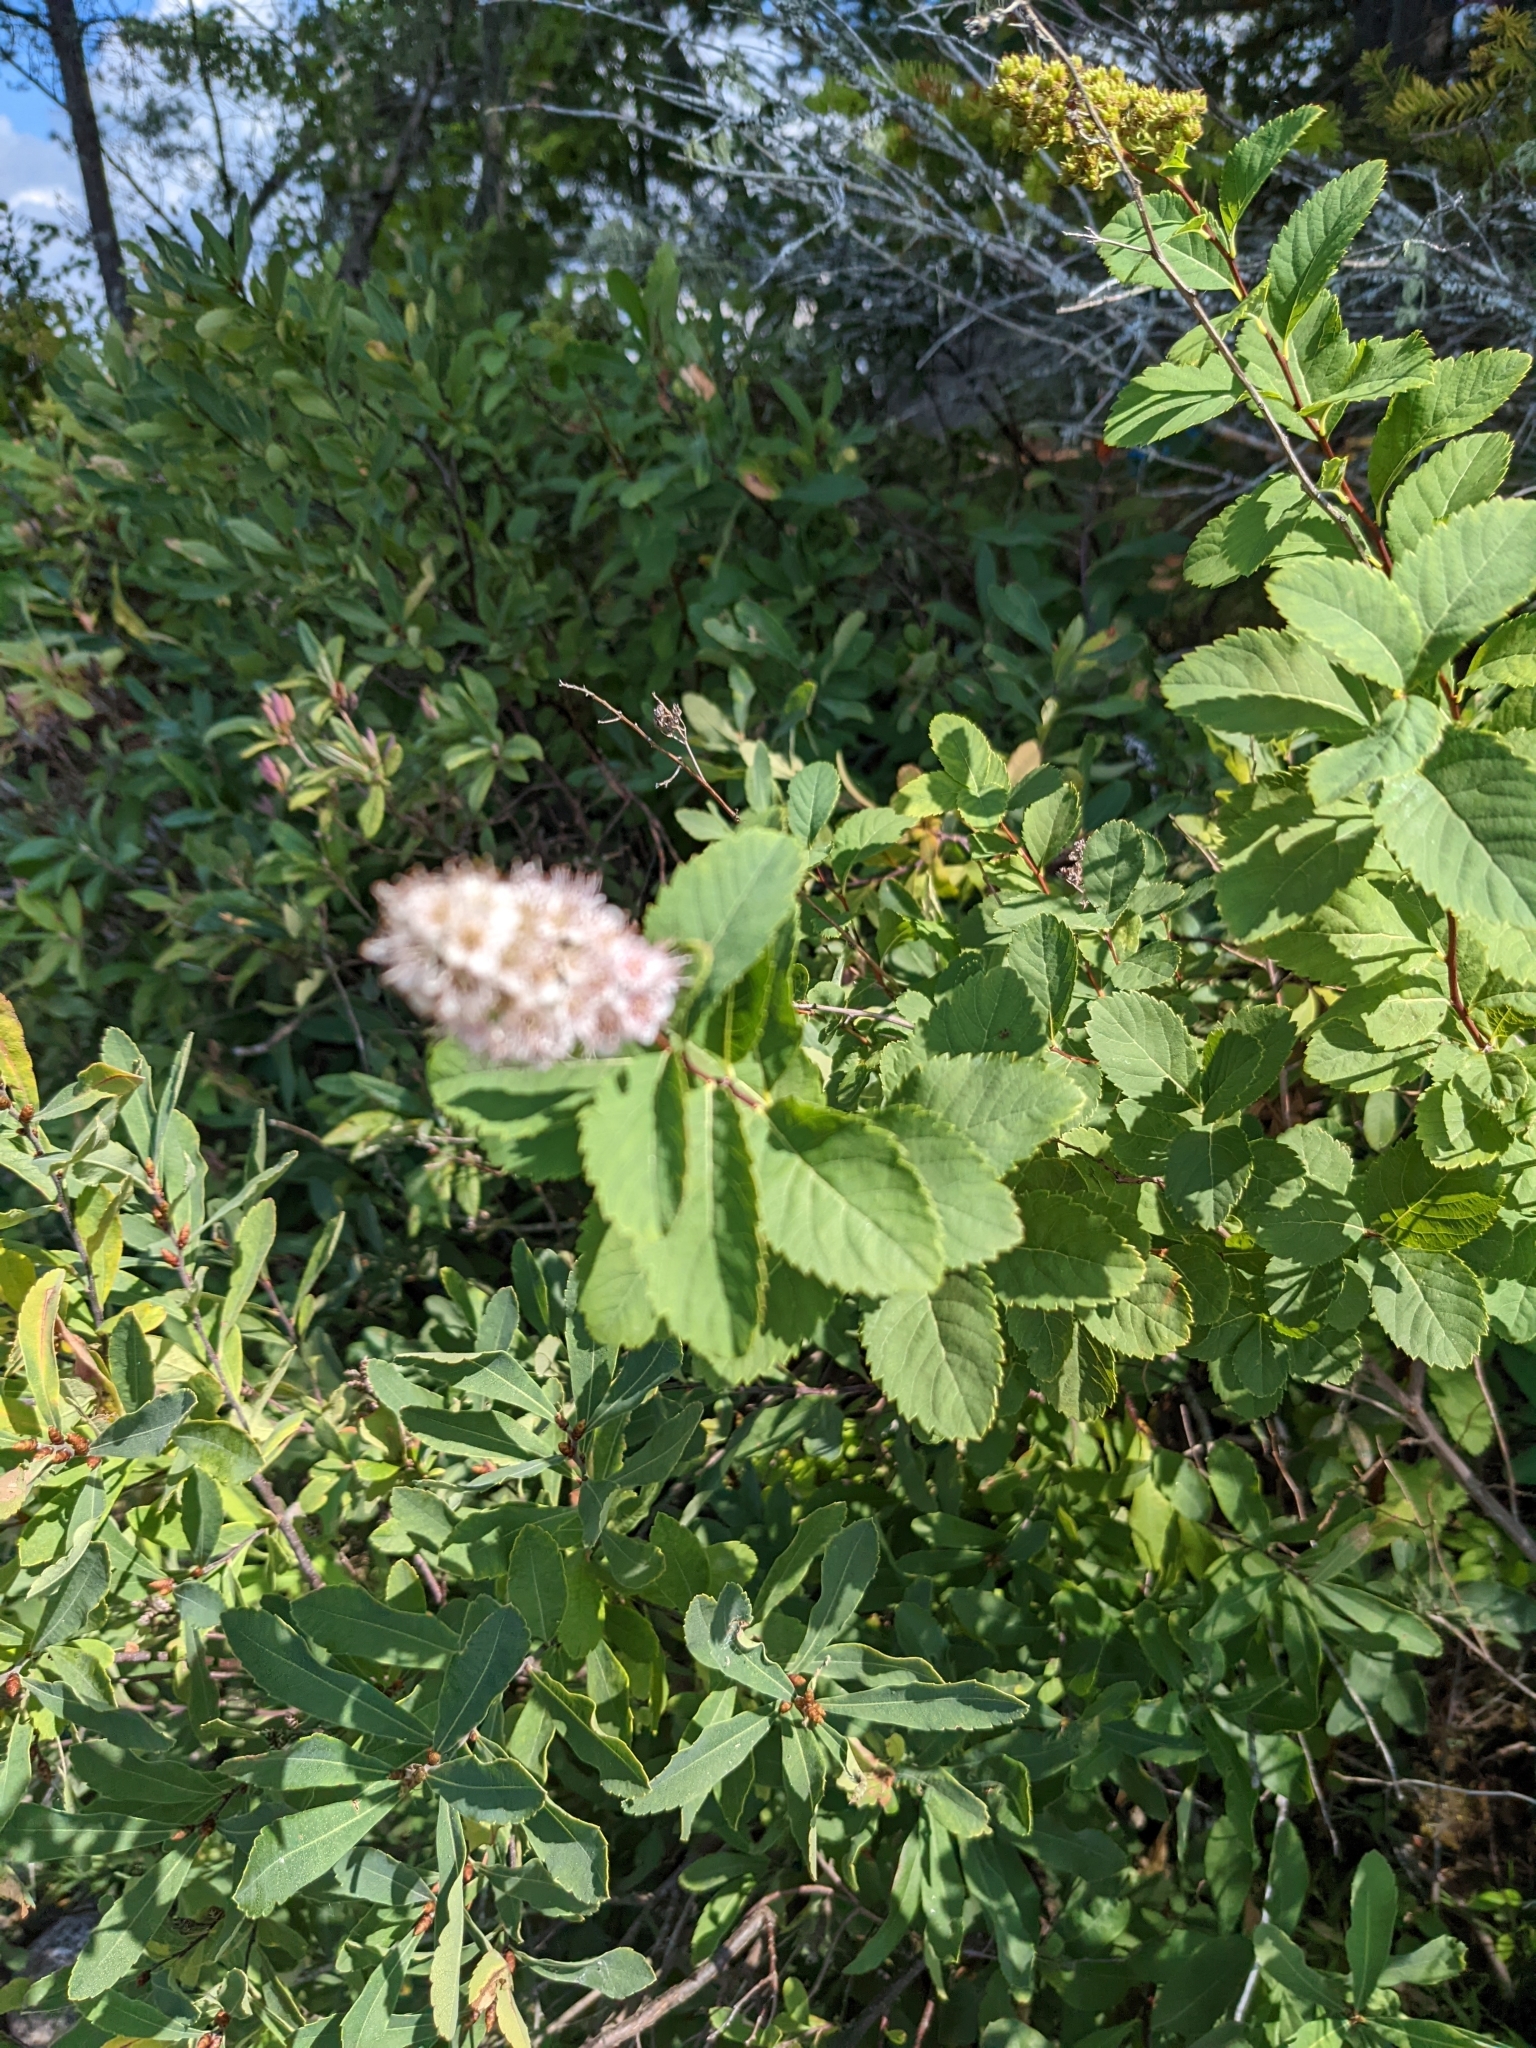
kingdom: Plantae
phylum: Tracheophyta
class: Magnoliopsida
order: Rosales
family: Rosaceae
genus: Spiraea
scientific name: Spiraea alba
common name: Pale bridewort
